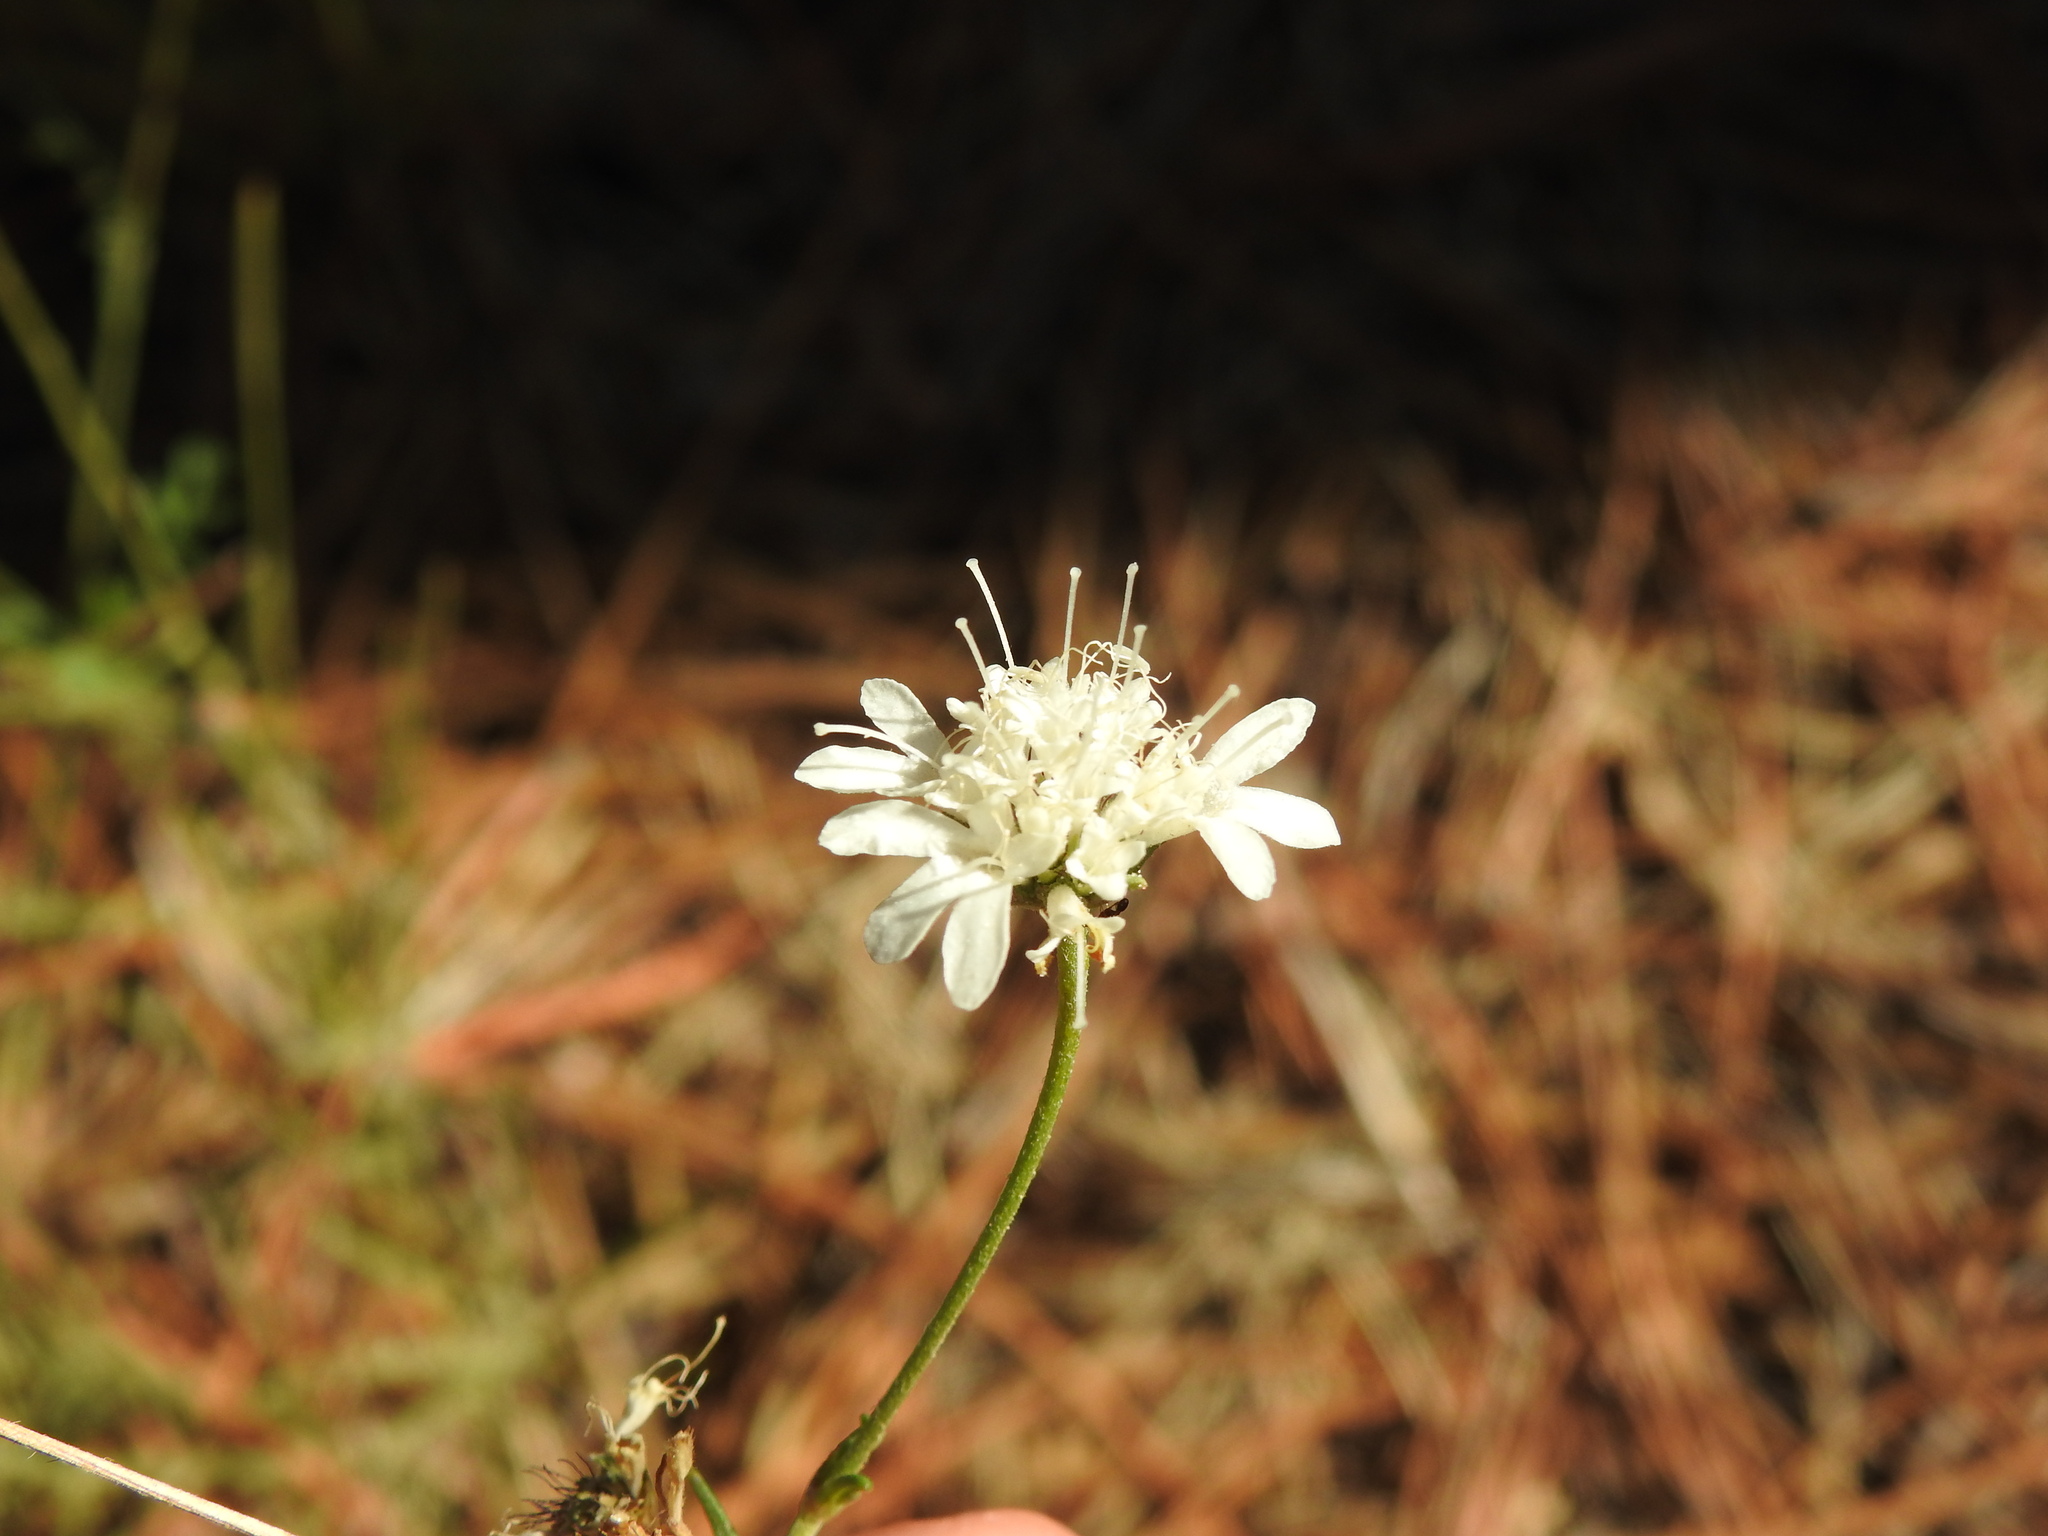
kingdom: Plantae
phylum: Tracheophyta
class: Magnoliopsida
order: Dipsacales
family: Caprifoliaceae
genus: Pycnocomon
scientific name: Pycnocomon rutifolium
